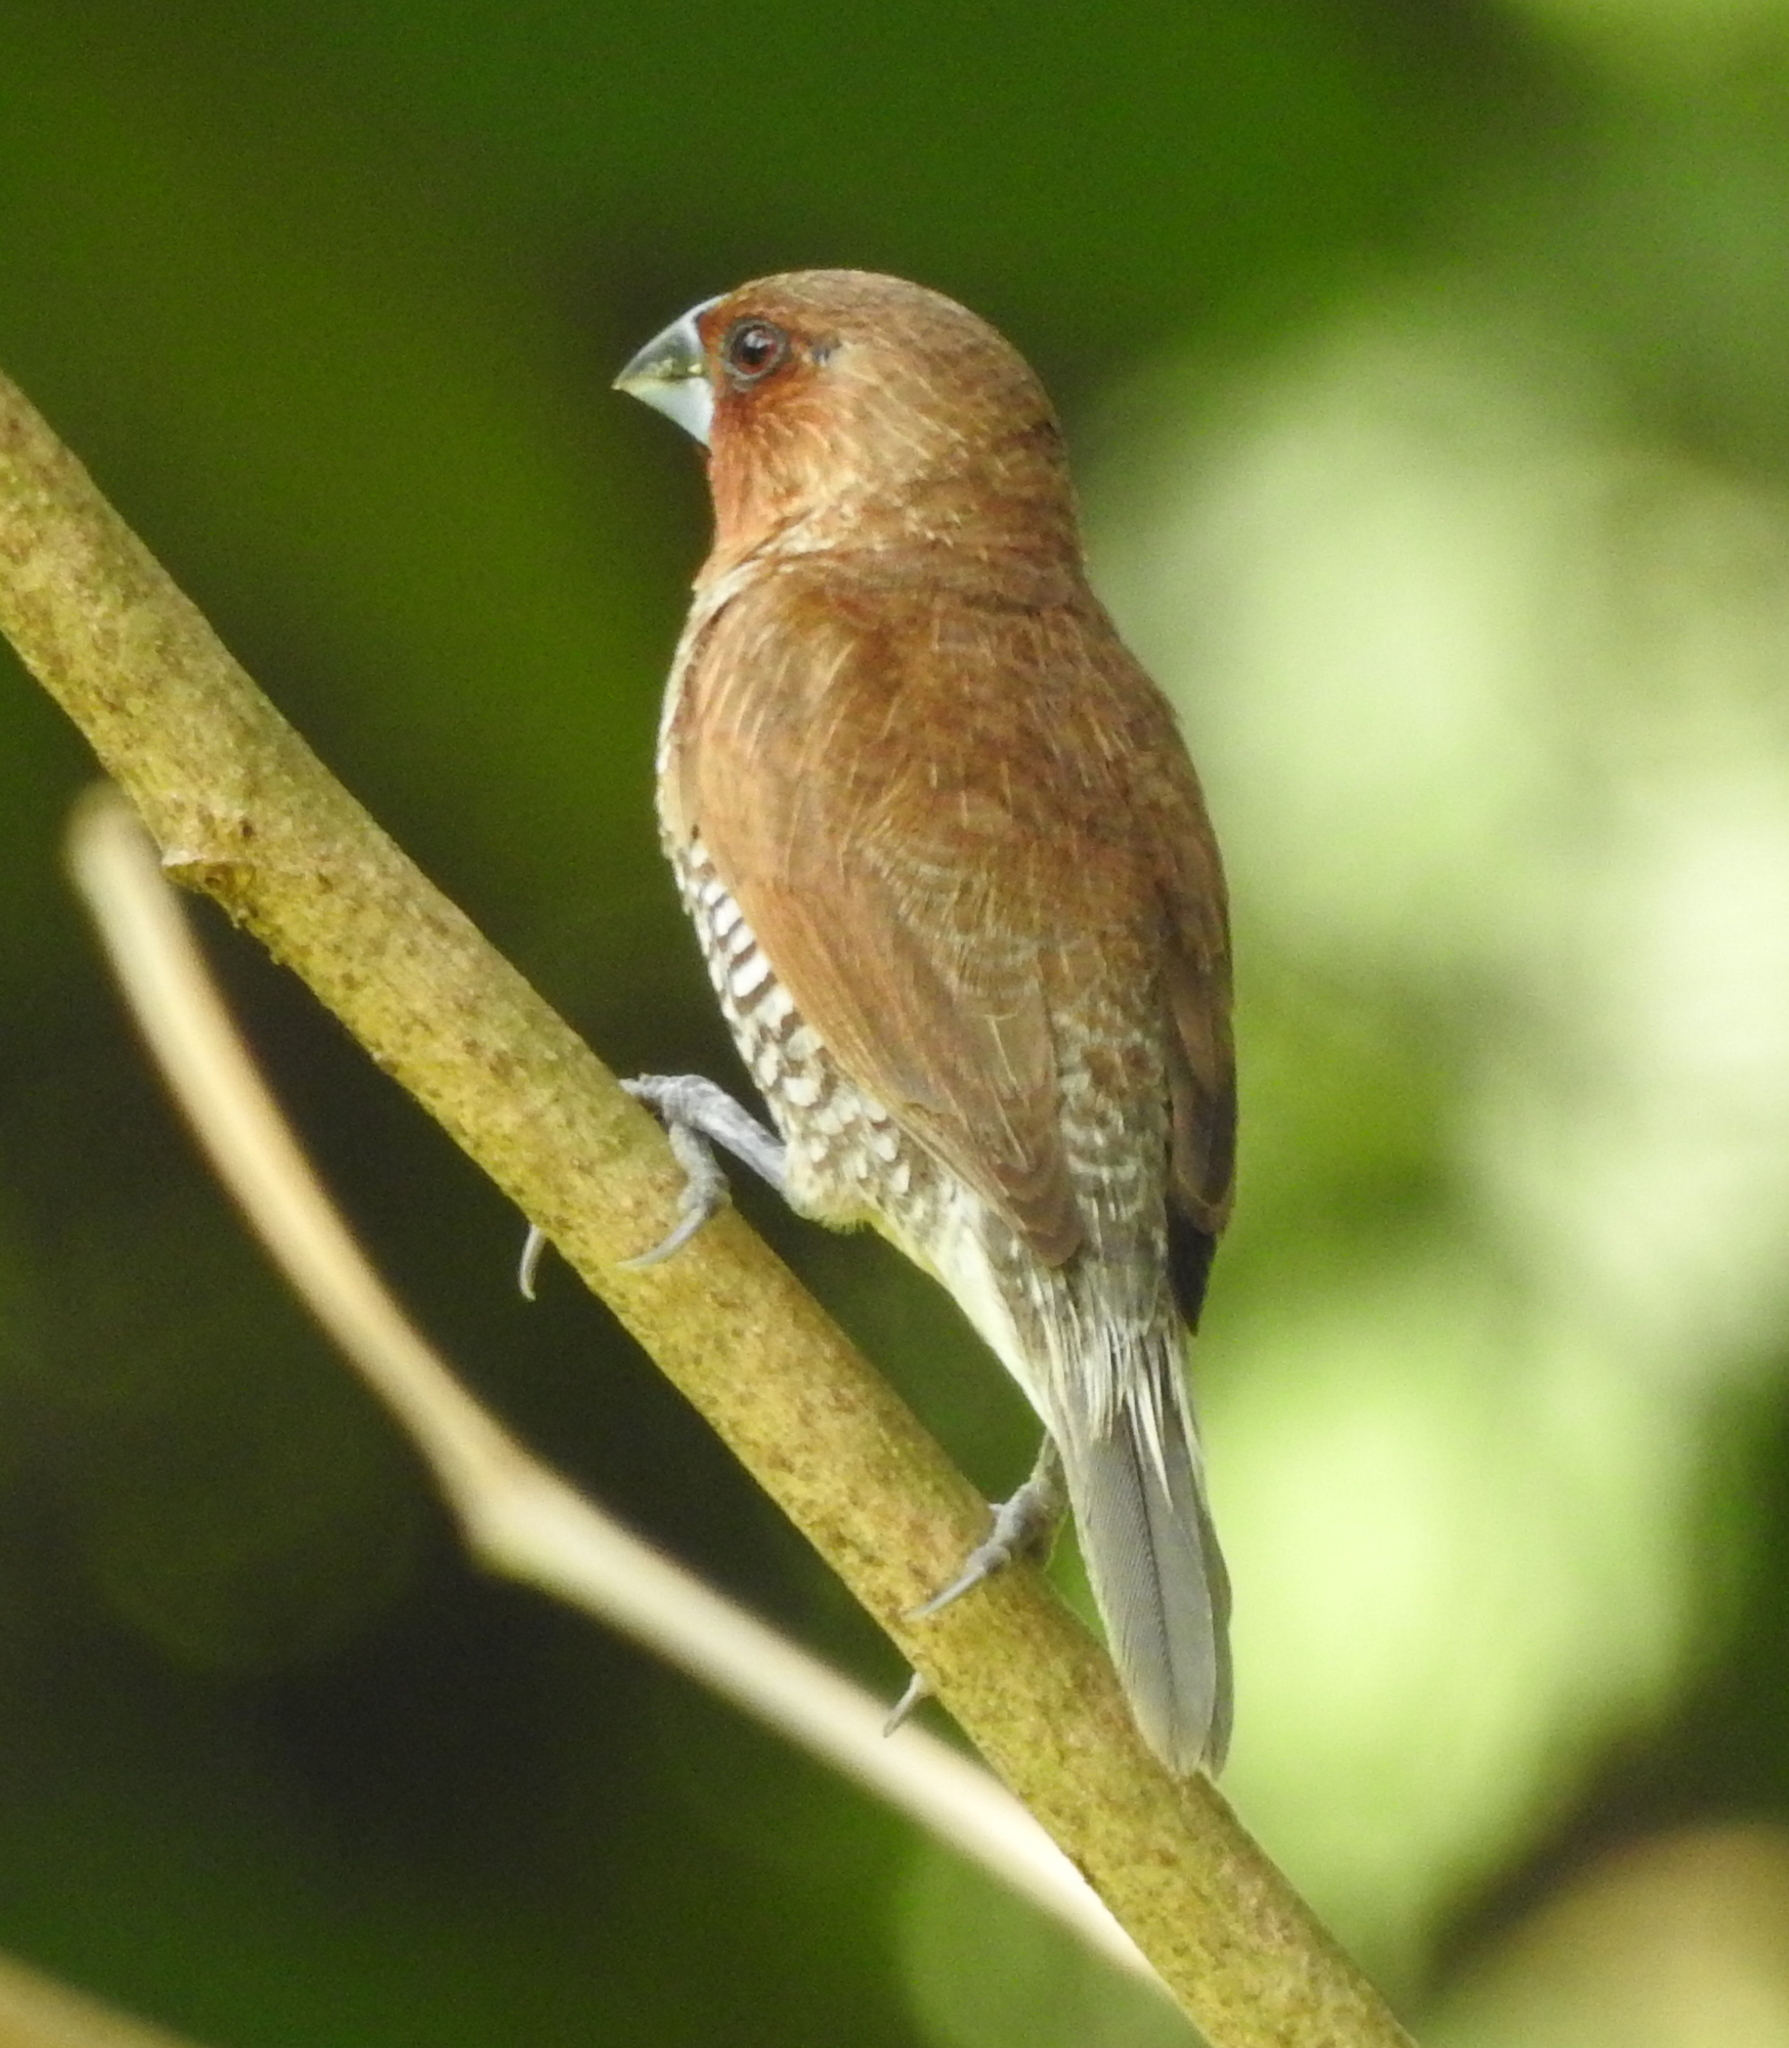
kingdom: Animalia
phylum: Chordata
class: Aves
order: Passeriformes
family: Estrildidae
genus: Lonchura
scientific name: Lonchura punctulata
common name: Scaly-breasted munia
